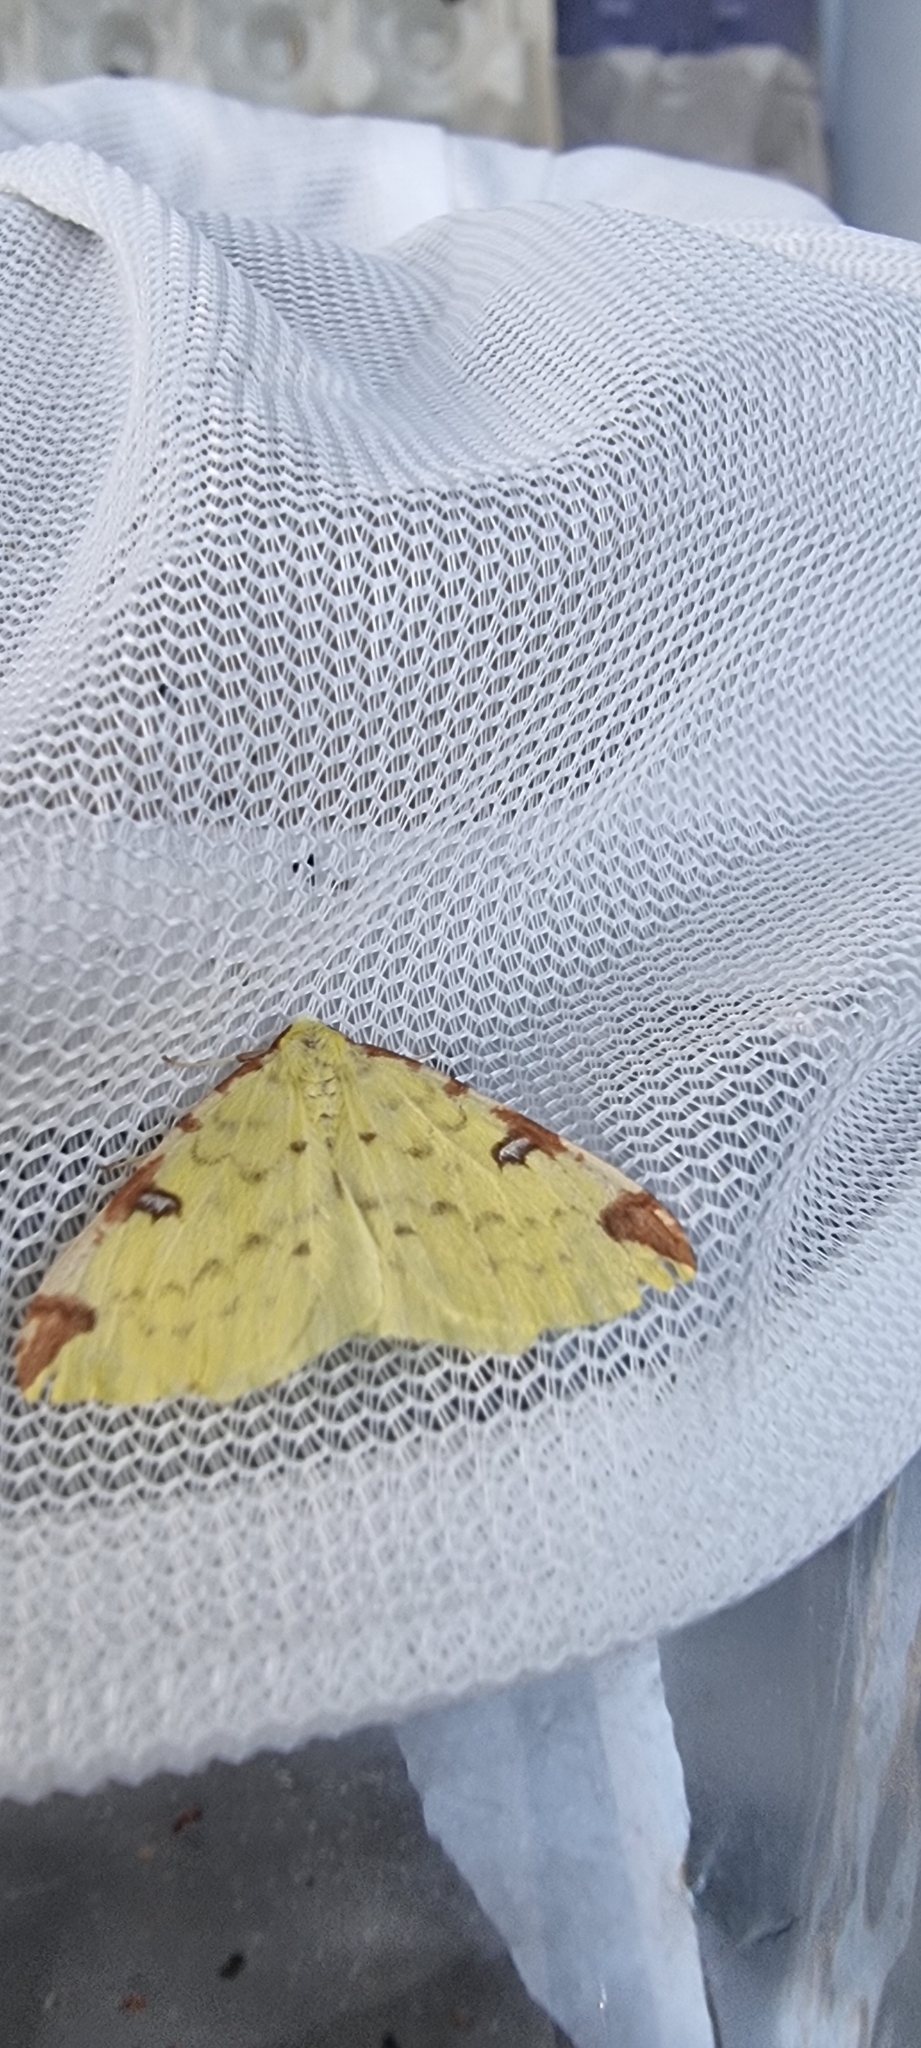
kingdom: Animalia
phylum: Arthropoda
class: Insecta
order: Lepidoptera
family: Geometridae
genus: Opisthograptis
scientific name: Opisthograptis luteolata
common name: Brimstone moth
